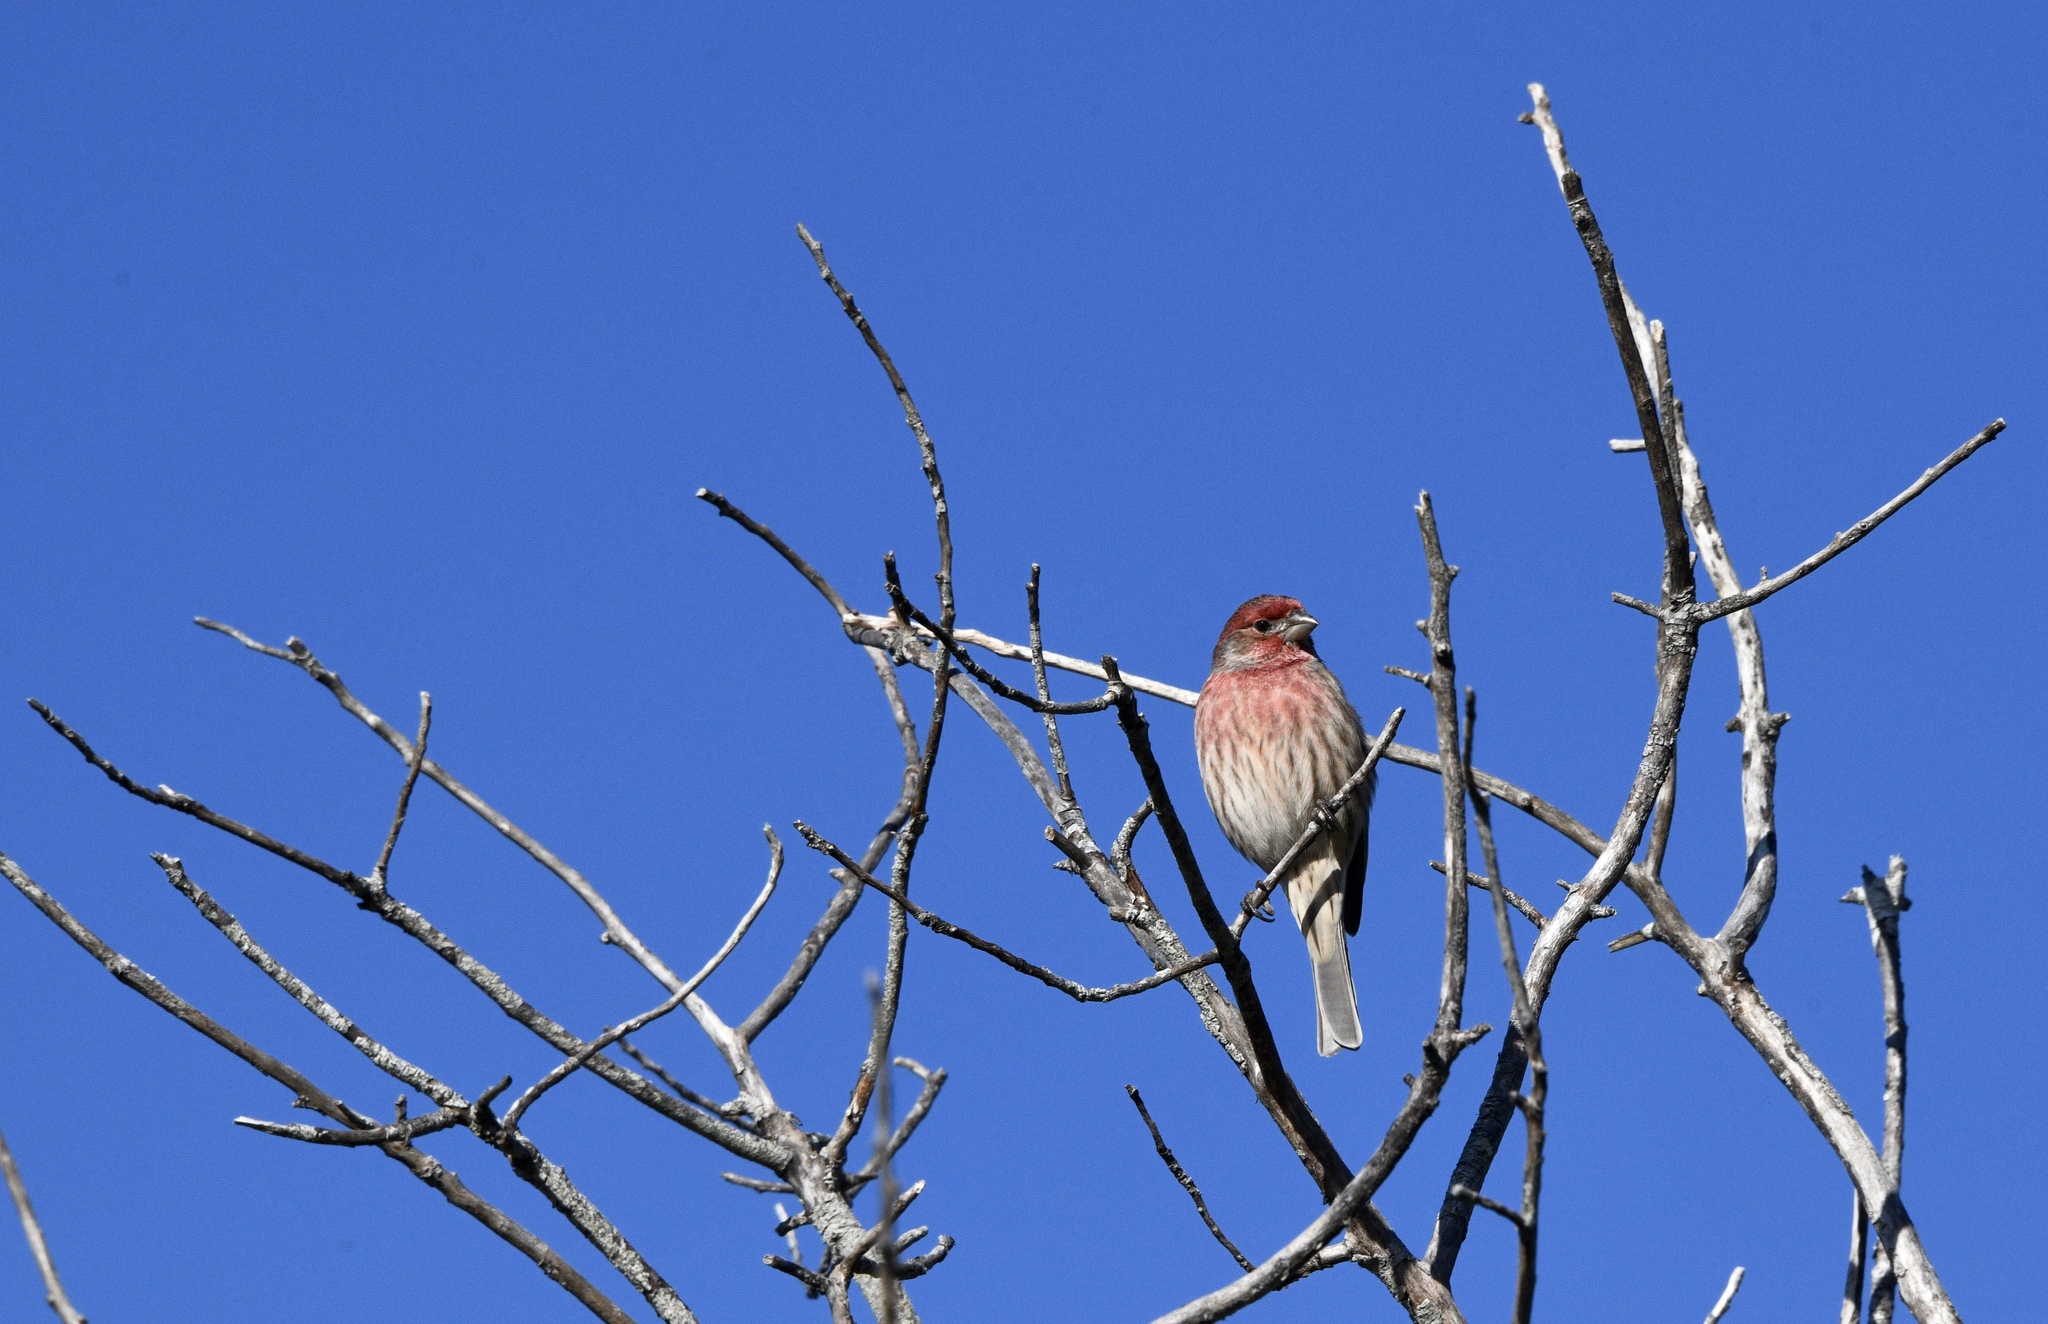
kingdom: Animalia
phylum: Chordata
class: Aves
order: Passeriformes
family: Fringillidae
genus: Haemorhous
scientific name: Haemorhous mexicanus
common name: House finch
